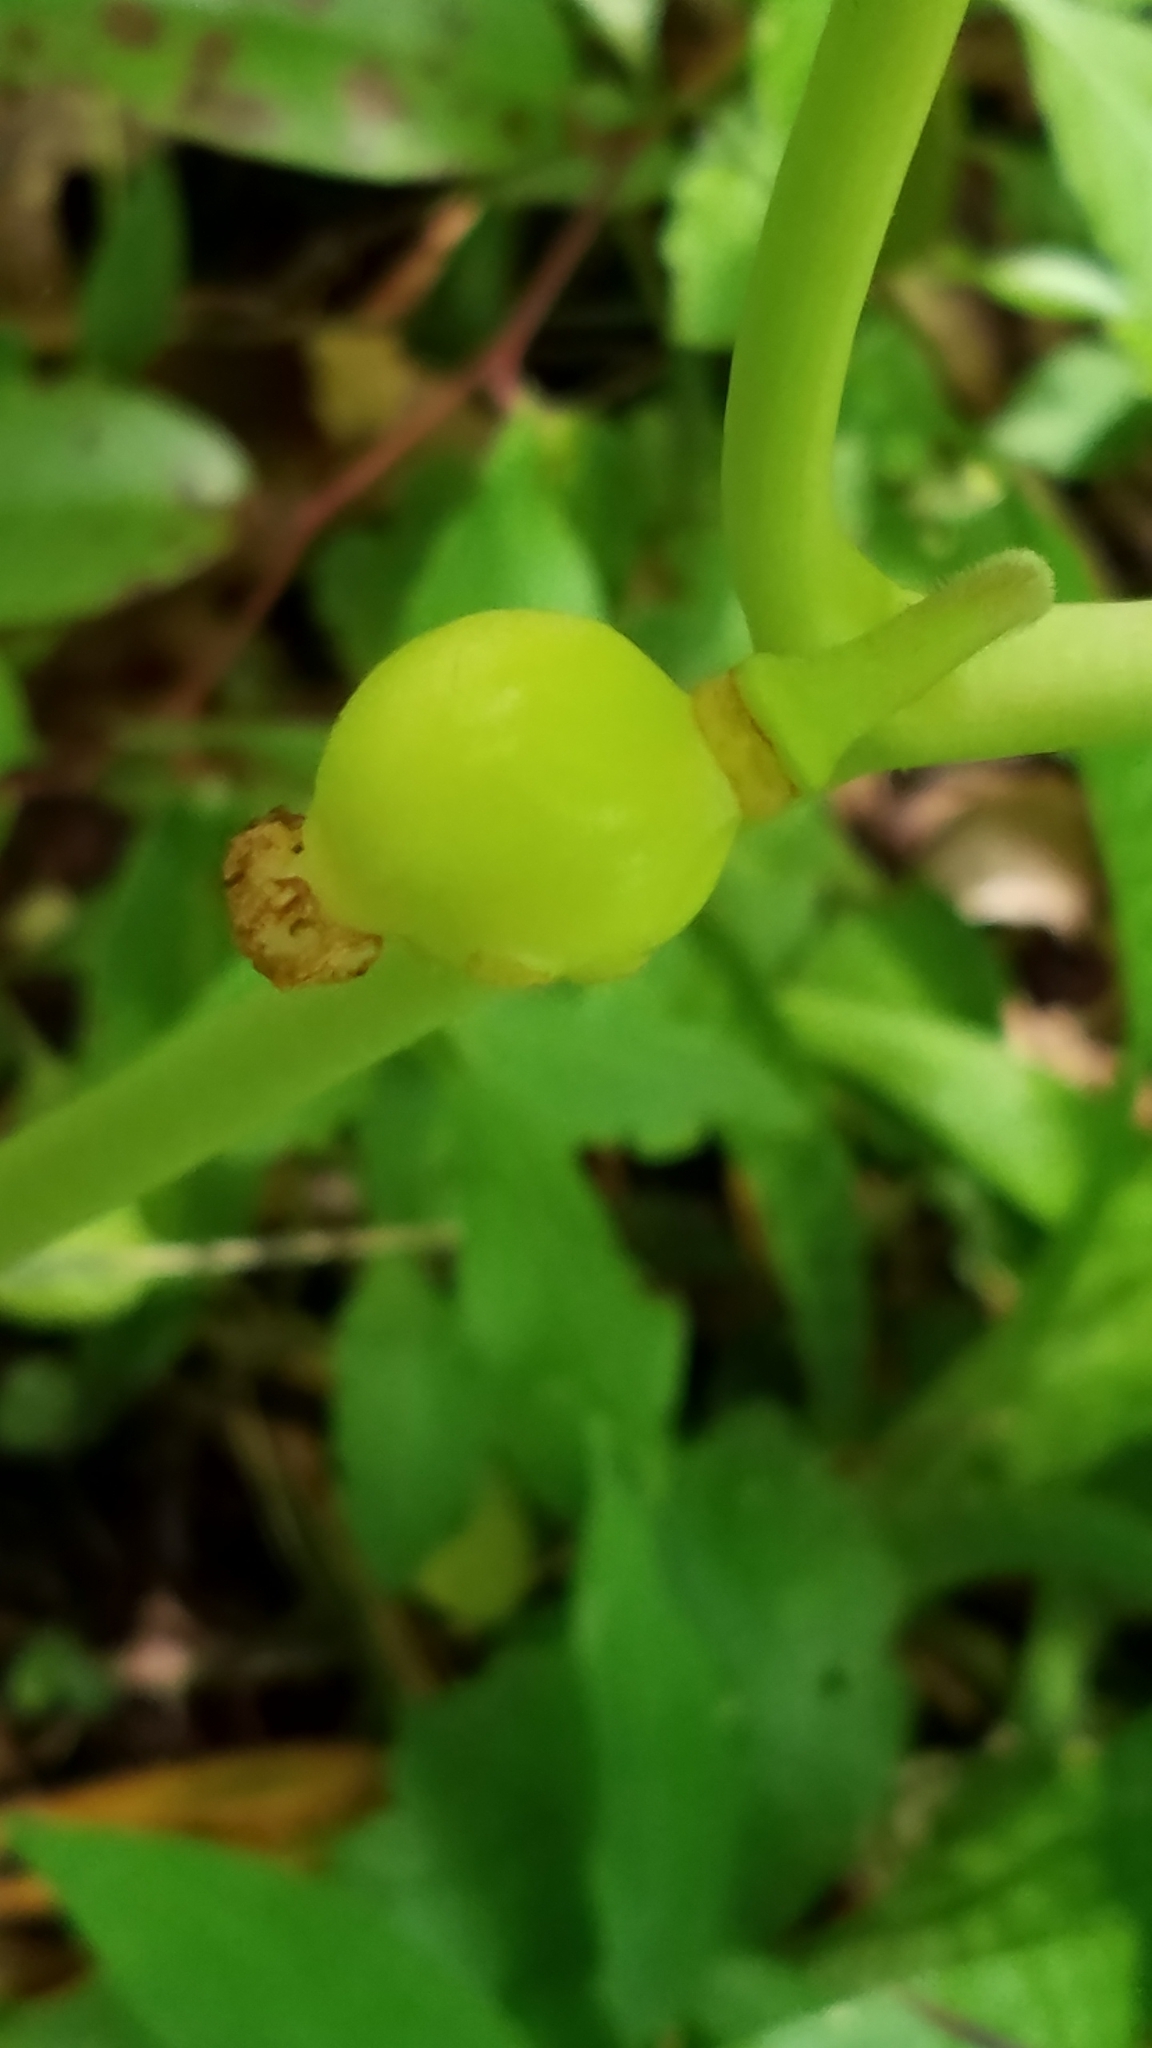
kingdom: Plantae
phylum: Tracheophyta
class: Magnoliopsida
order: Ranunculales
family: Berberidaceae
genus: Podophyllum
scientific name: Podophyllum peltatum
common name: Wild mandrake
